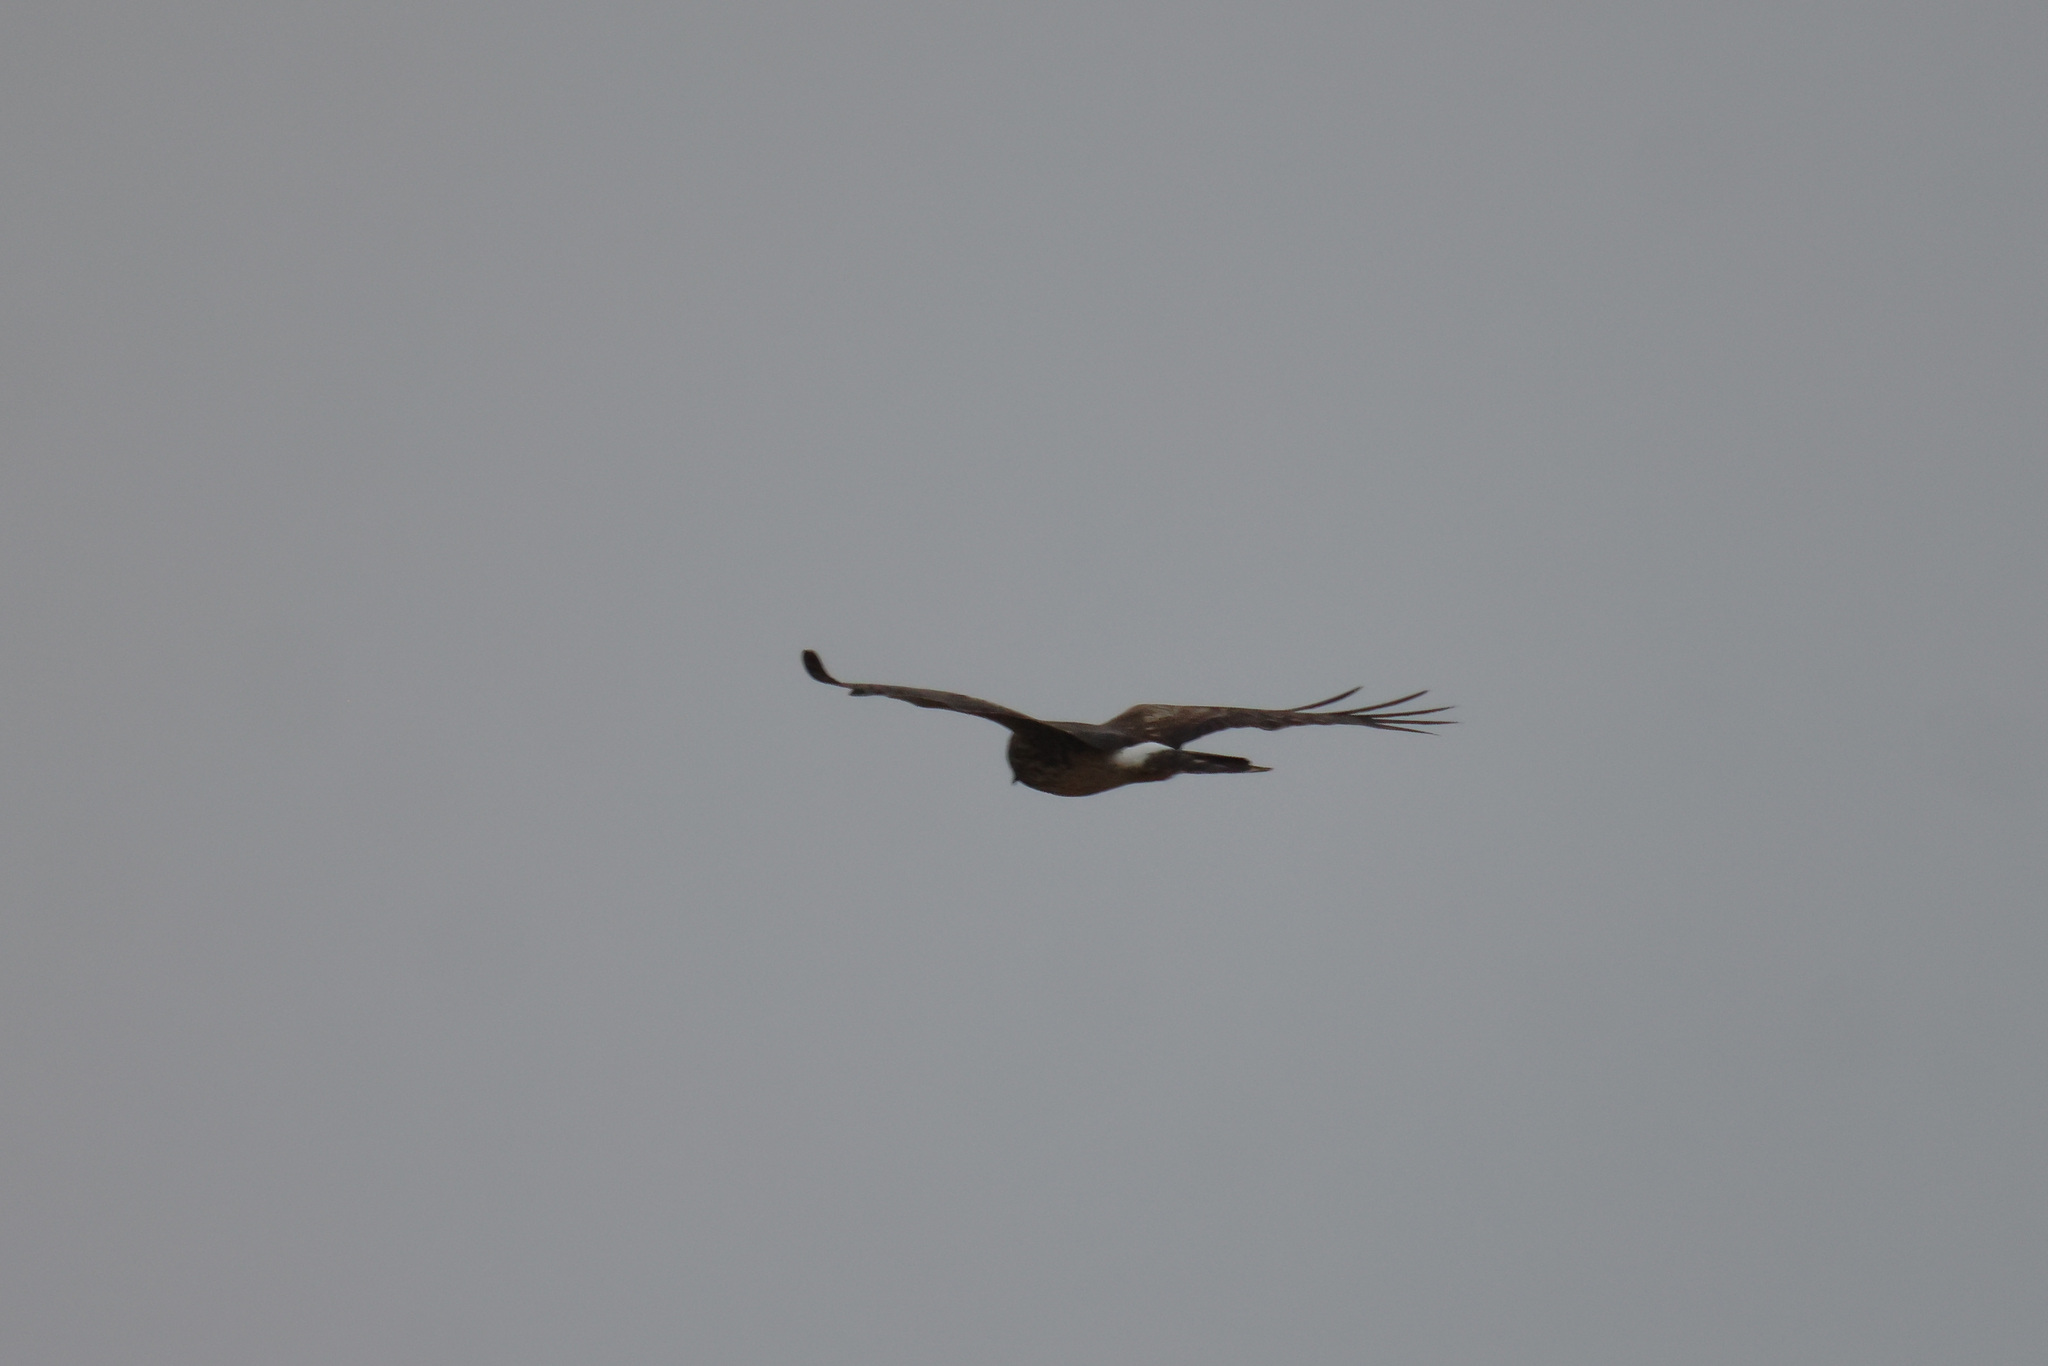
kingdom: Animalia
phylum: Chordata
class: Aves
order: Accipitriformes
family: Accipitridae
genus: Circus
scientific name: Circus cyaneus
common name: Hen harrier
